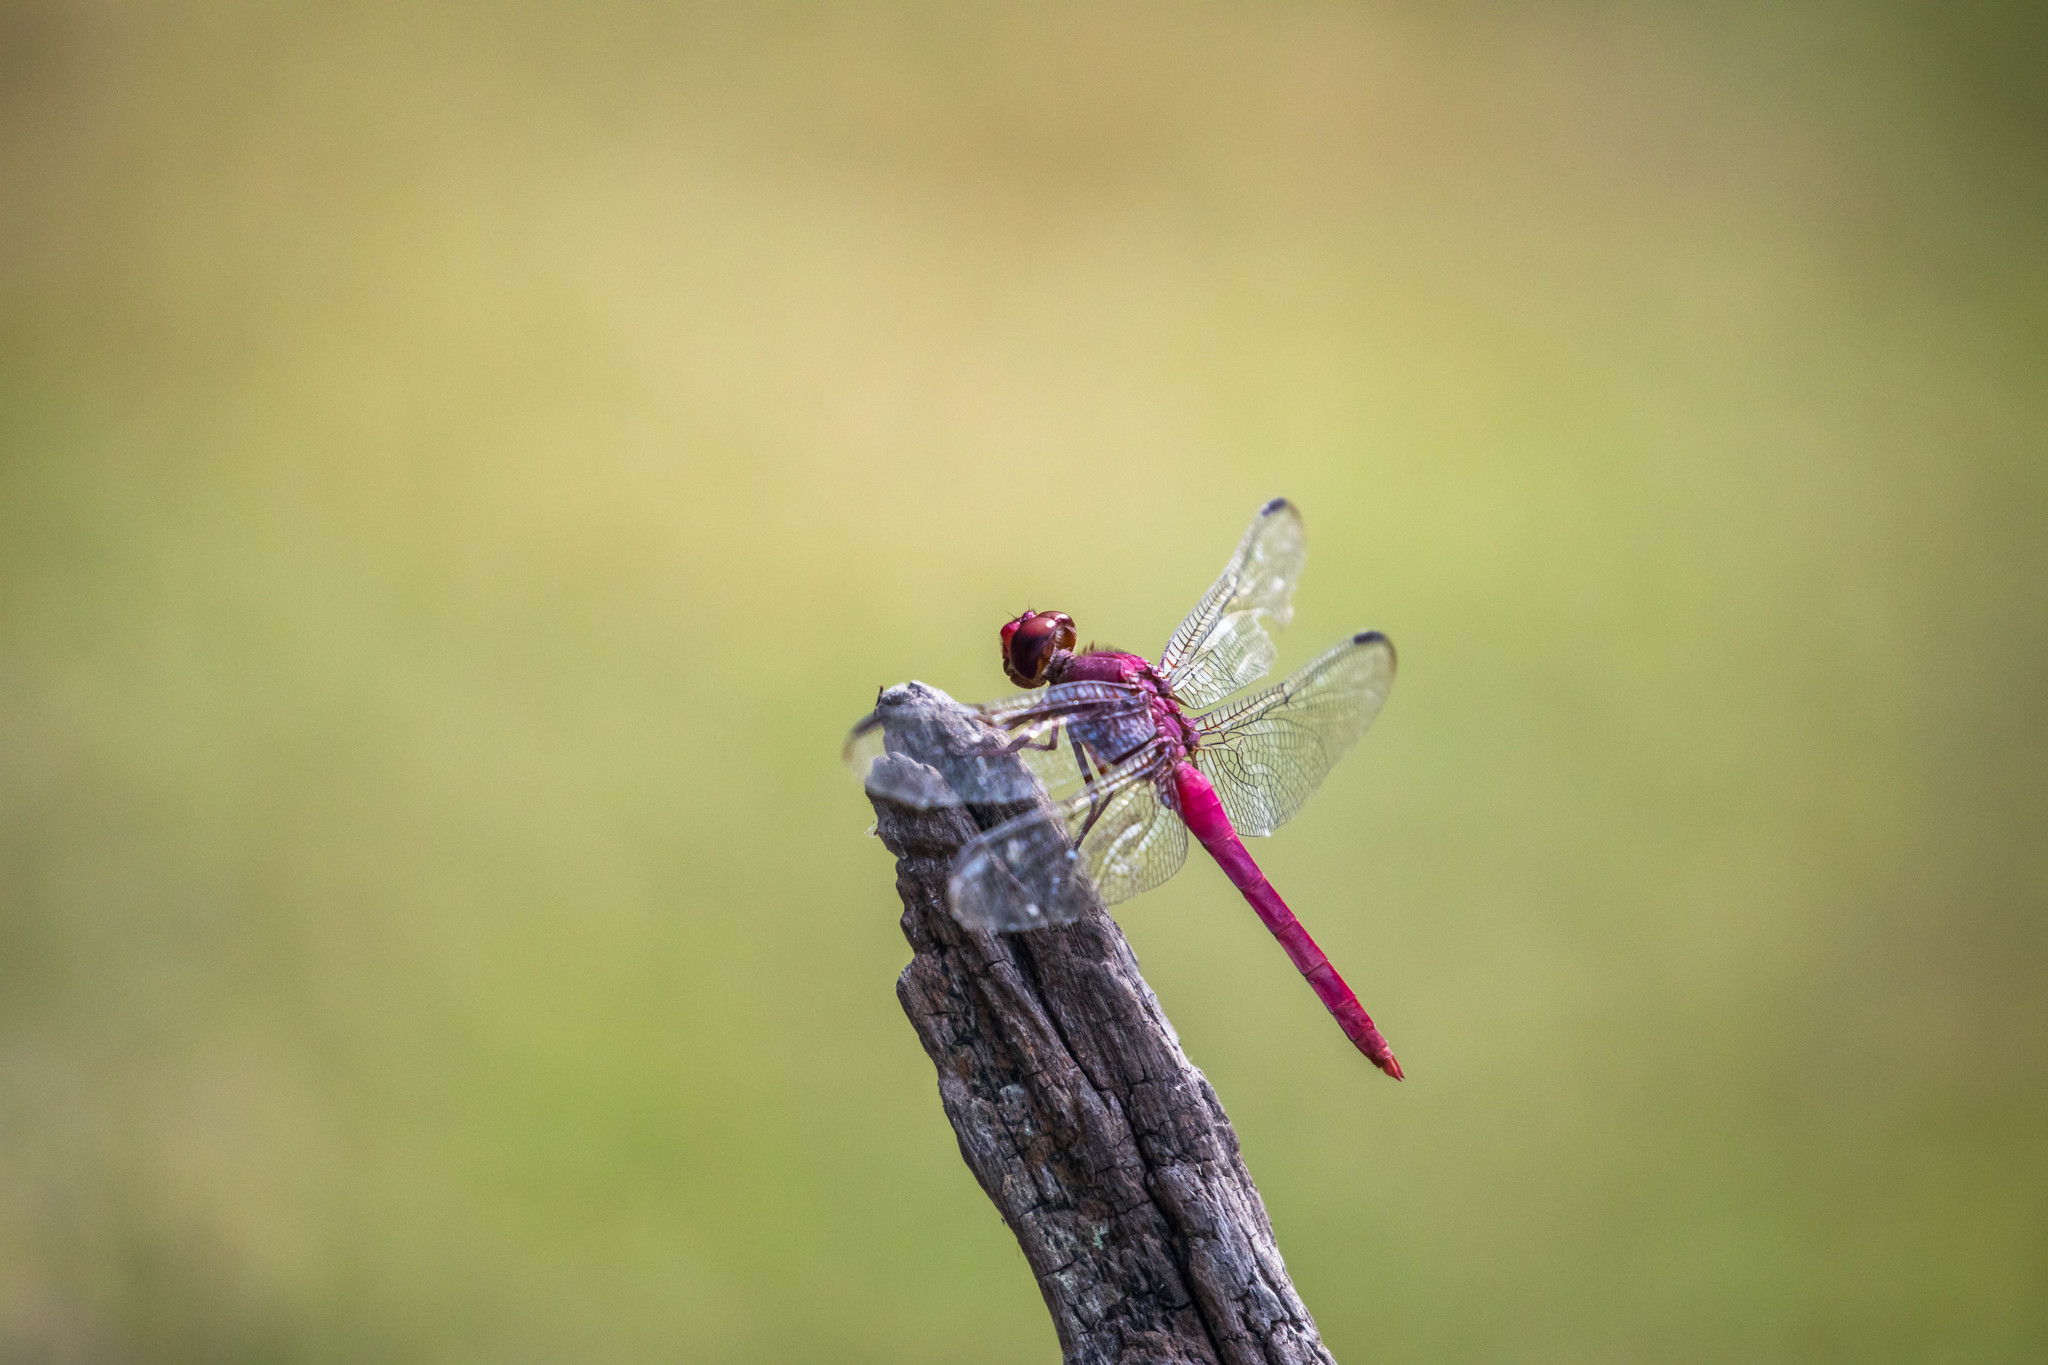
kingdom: Animalia
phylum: Arthropoda
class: Insecta
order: Odonata
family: Libellulidae
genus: Orthemis
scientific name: Orthemis discolor
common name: Carmine skimmer
